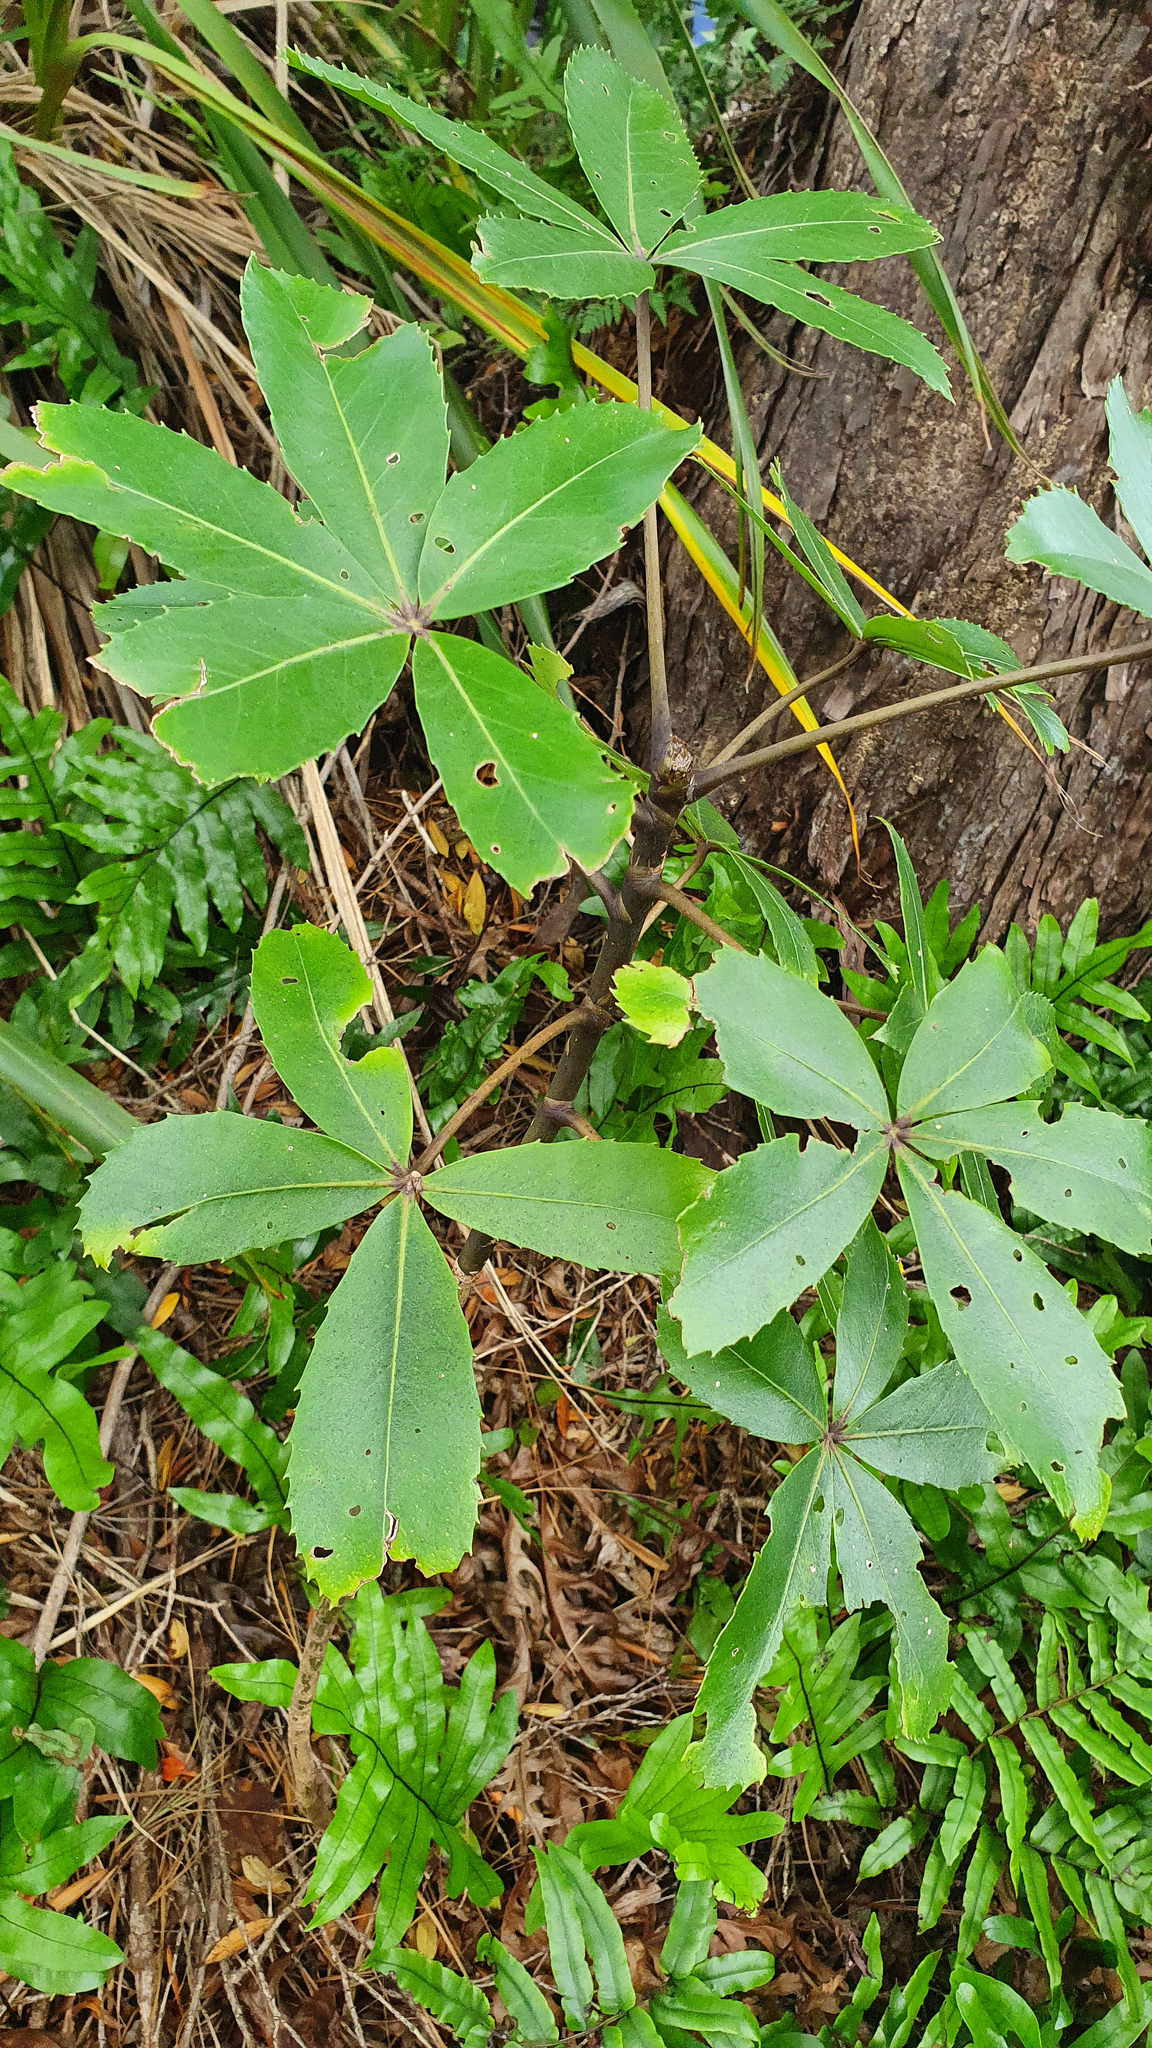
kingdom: Plantae
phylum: Tracheophyta
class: Magnoliopsida
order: Apiales
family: Araliaceae
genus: Neopanax
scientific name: Neopanax colensoi
